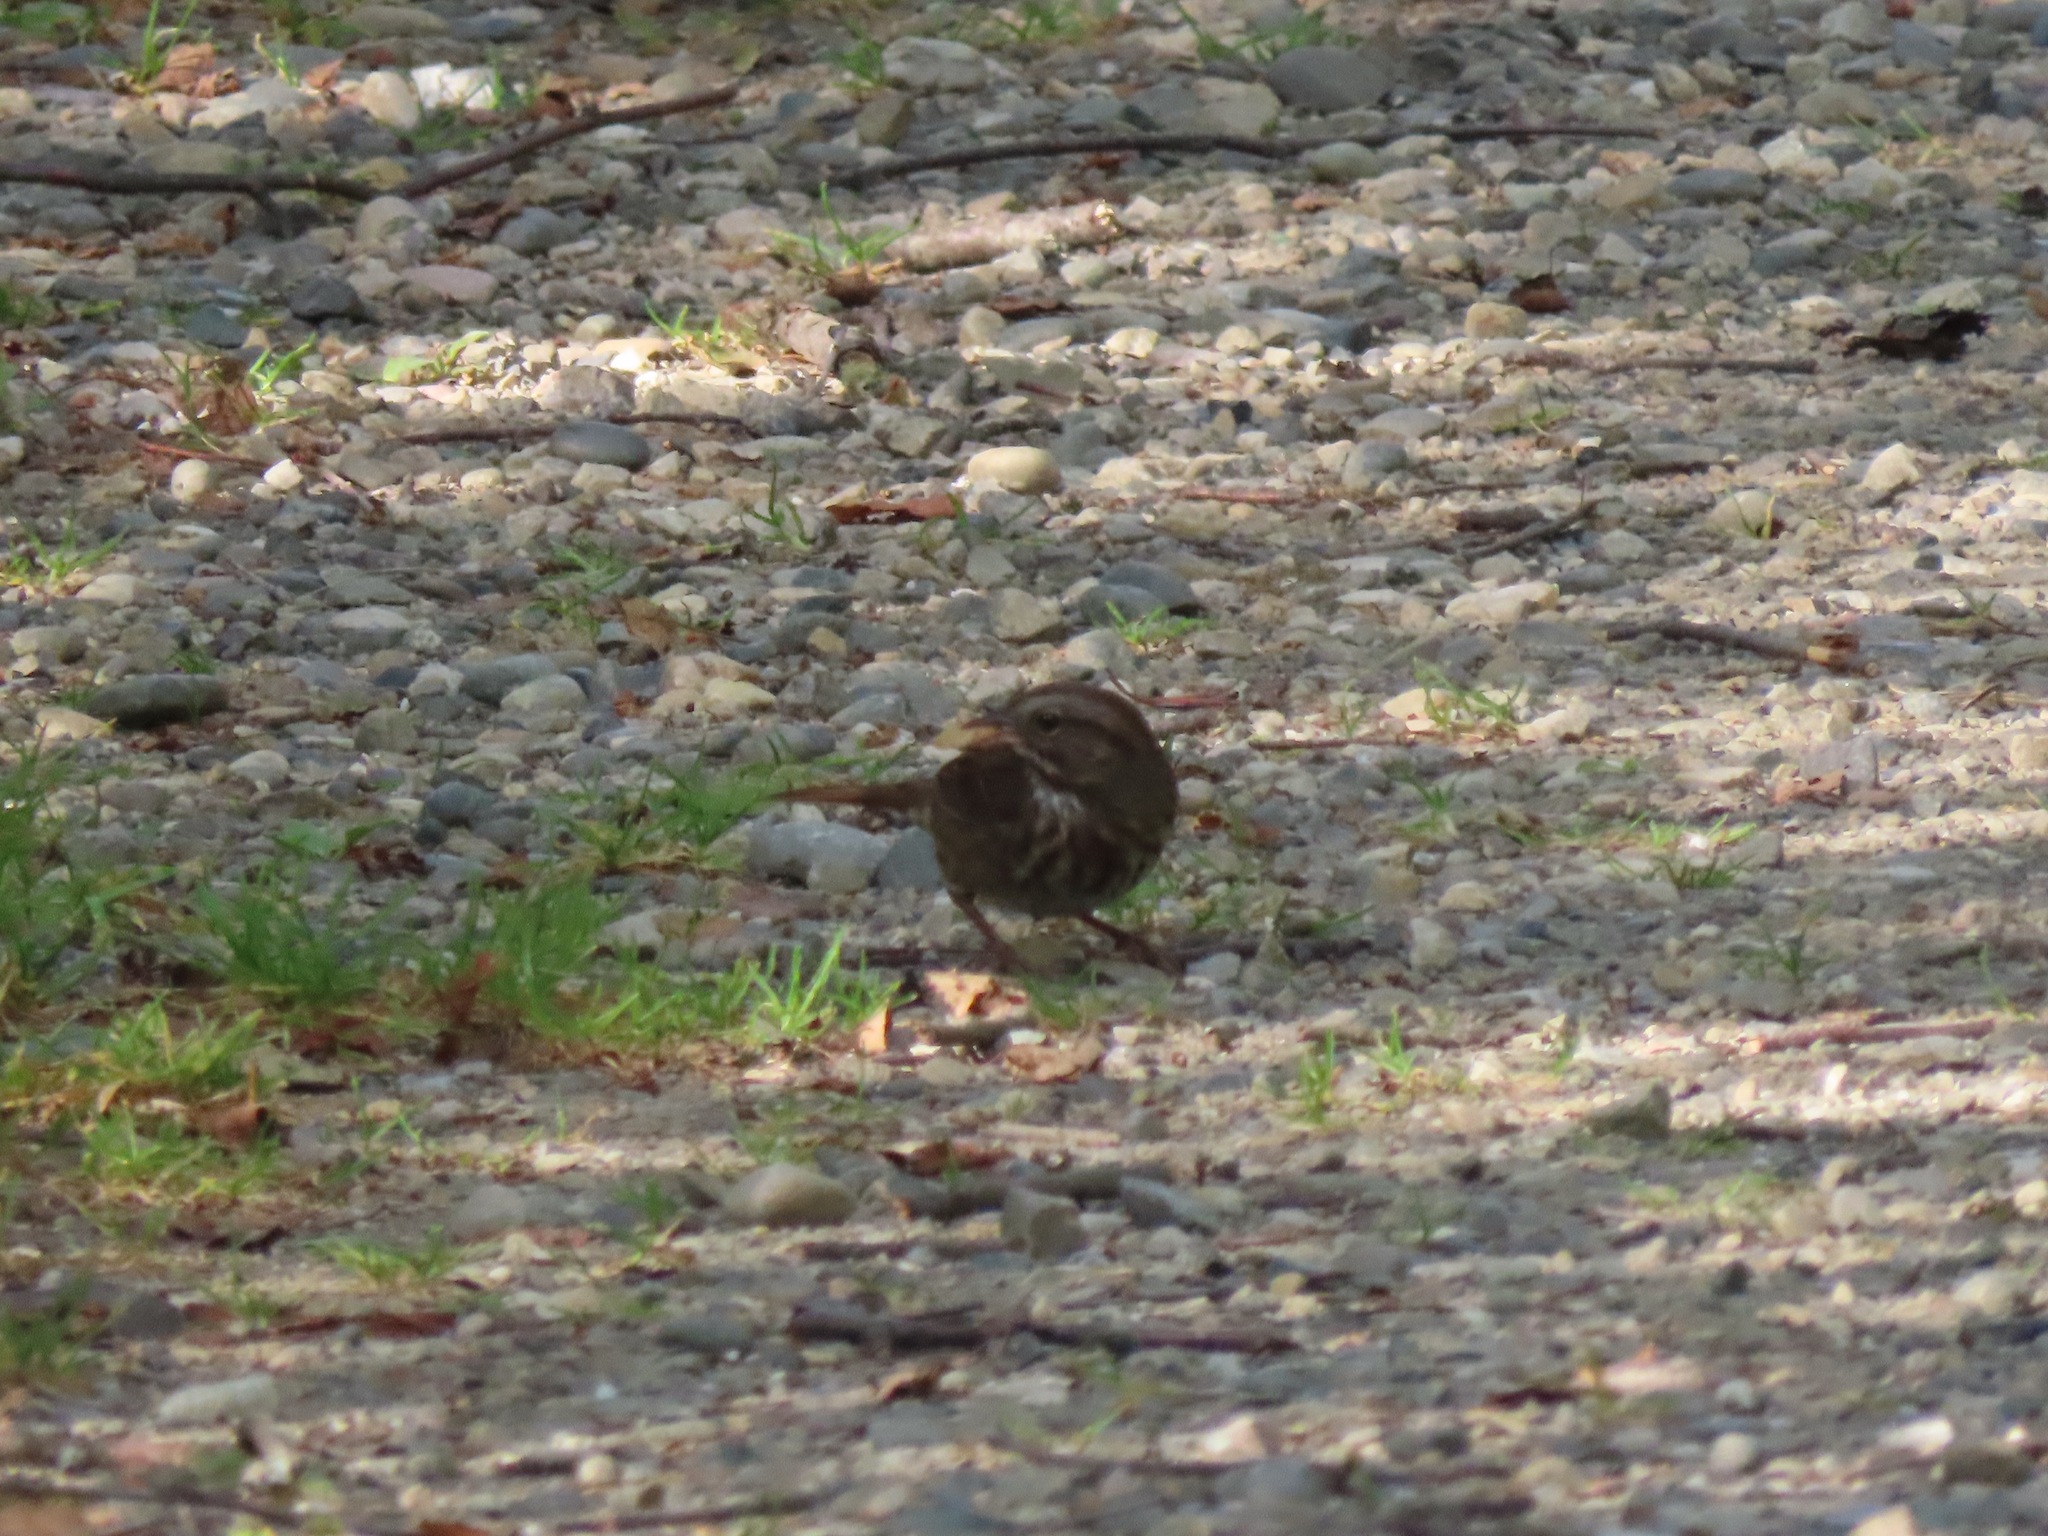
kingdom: Animalia
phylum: Chordata
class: Aves
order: Passeriformes
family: Passerellidae
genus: Melospiza
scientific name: Melospiza melodia
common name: Song sparrow
